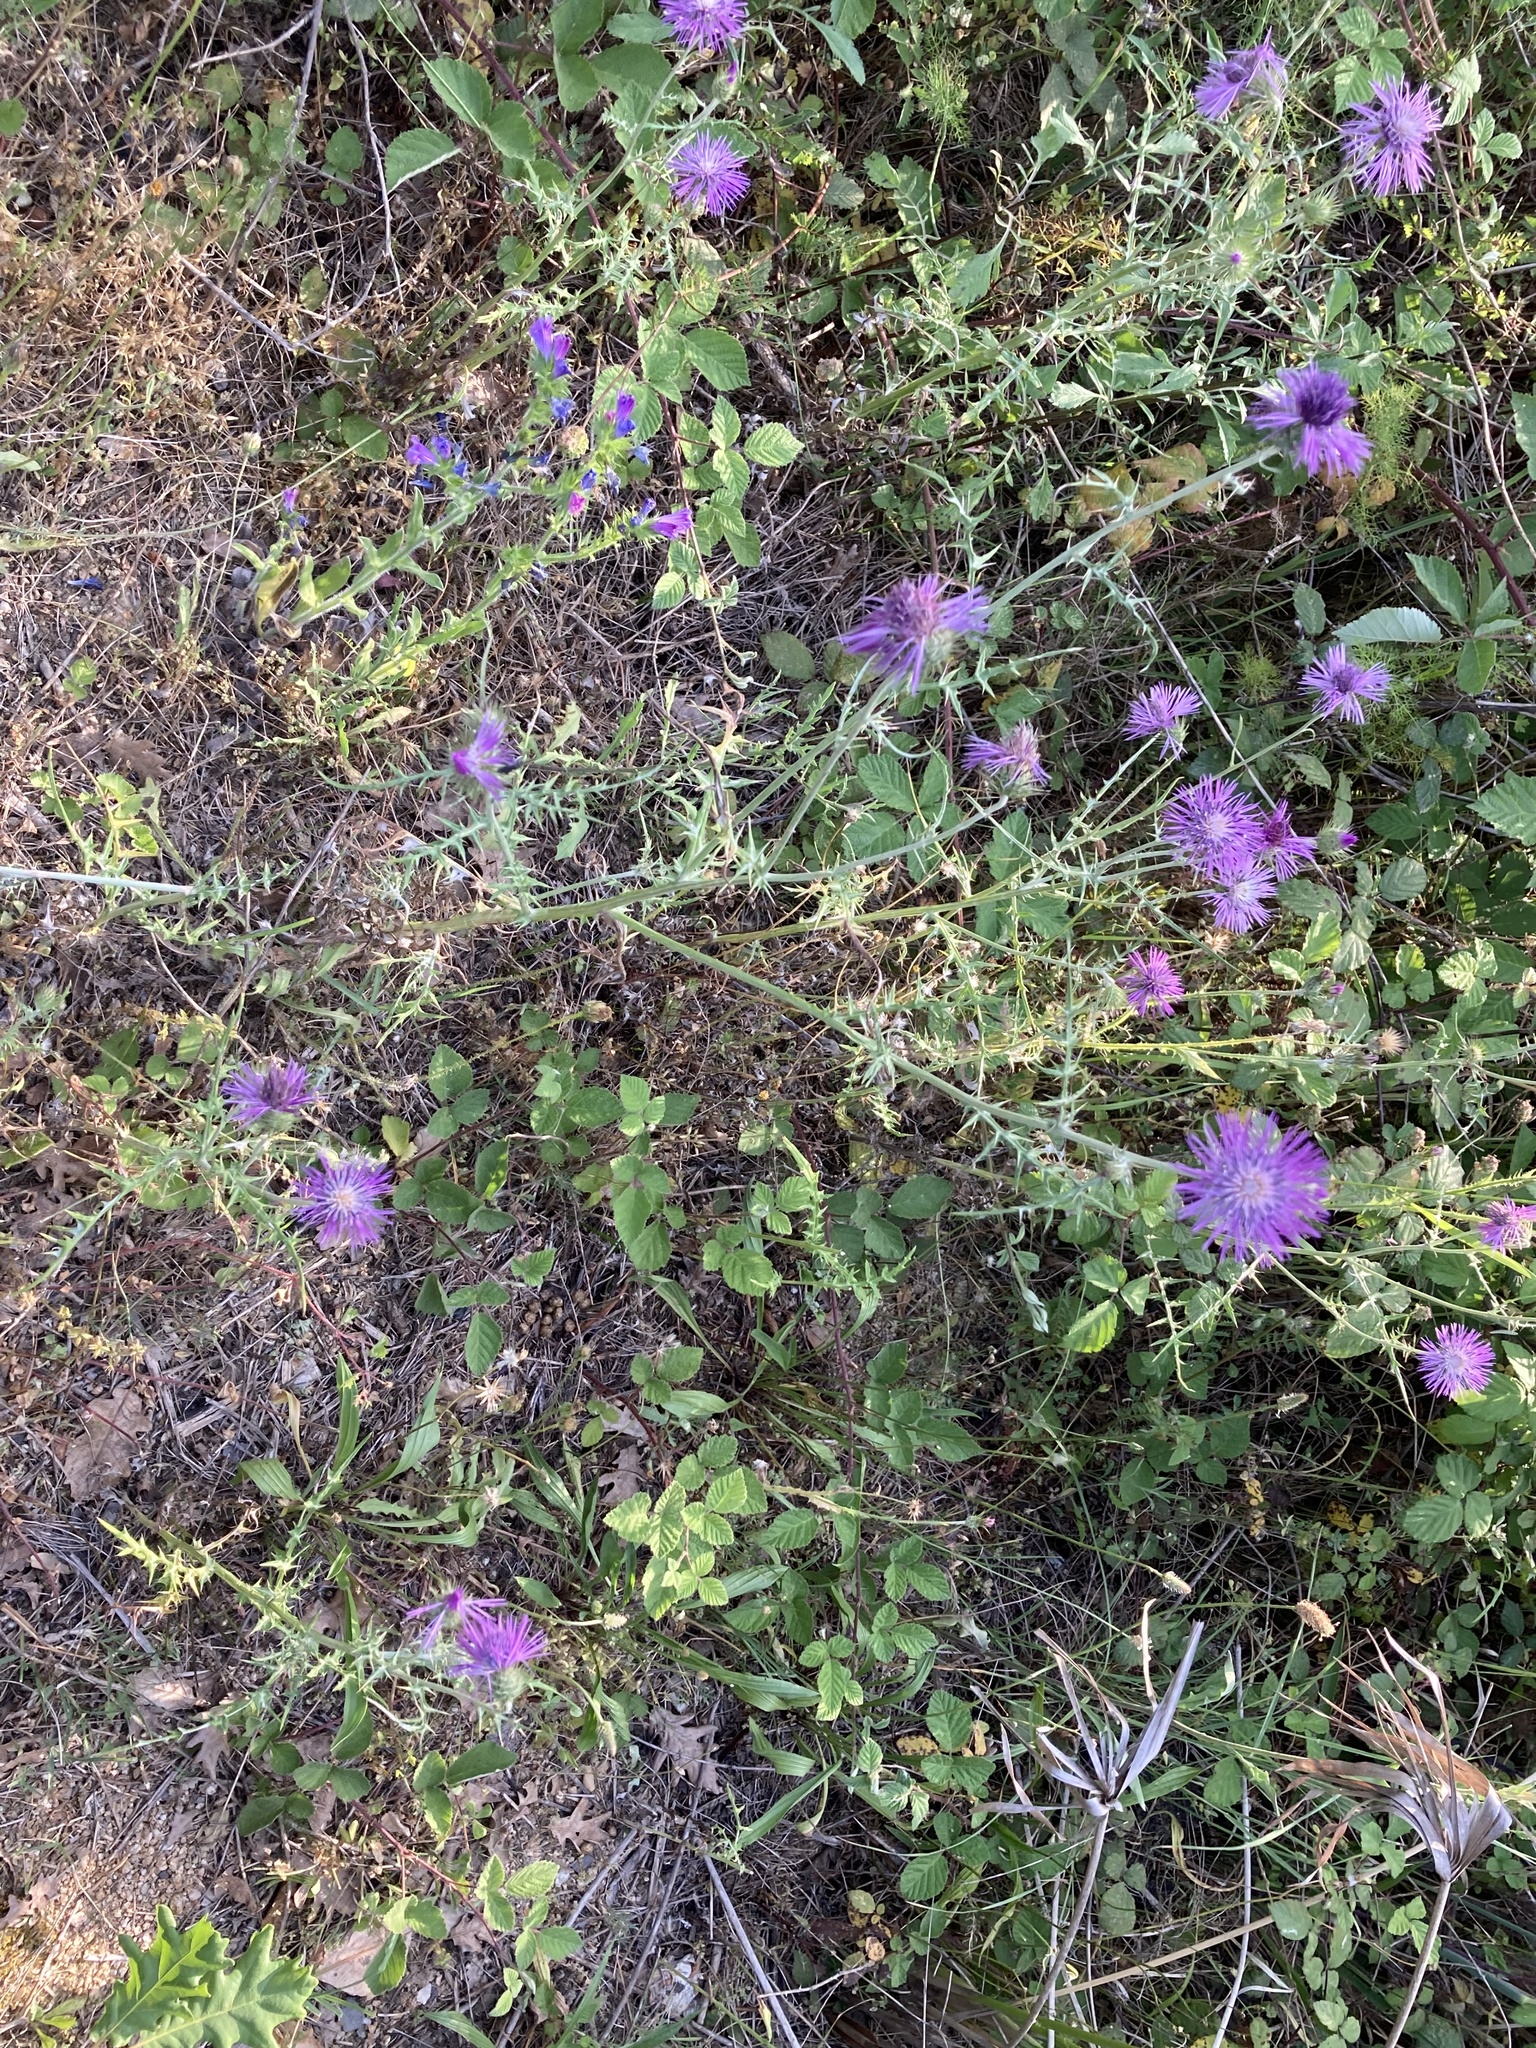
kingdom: Plantae
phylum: Tracheophyta
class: Magnoliopsida
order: Asterales
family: Asteraceae
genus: Galactites
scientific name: Galactites tomentosa
